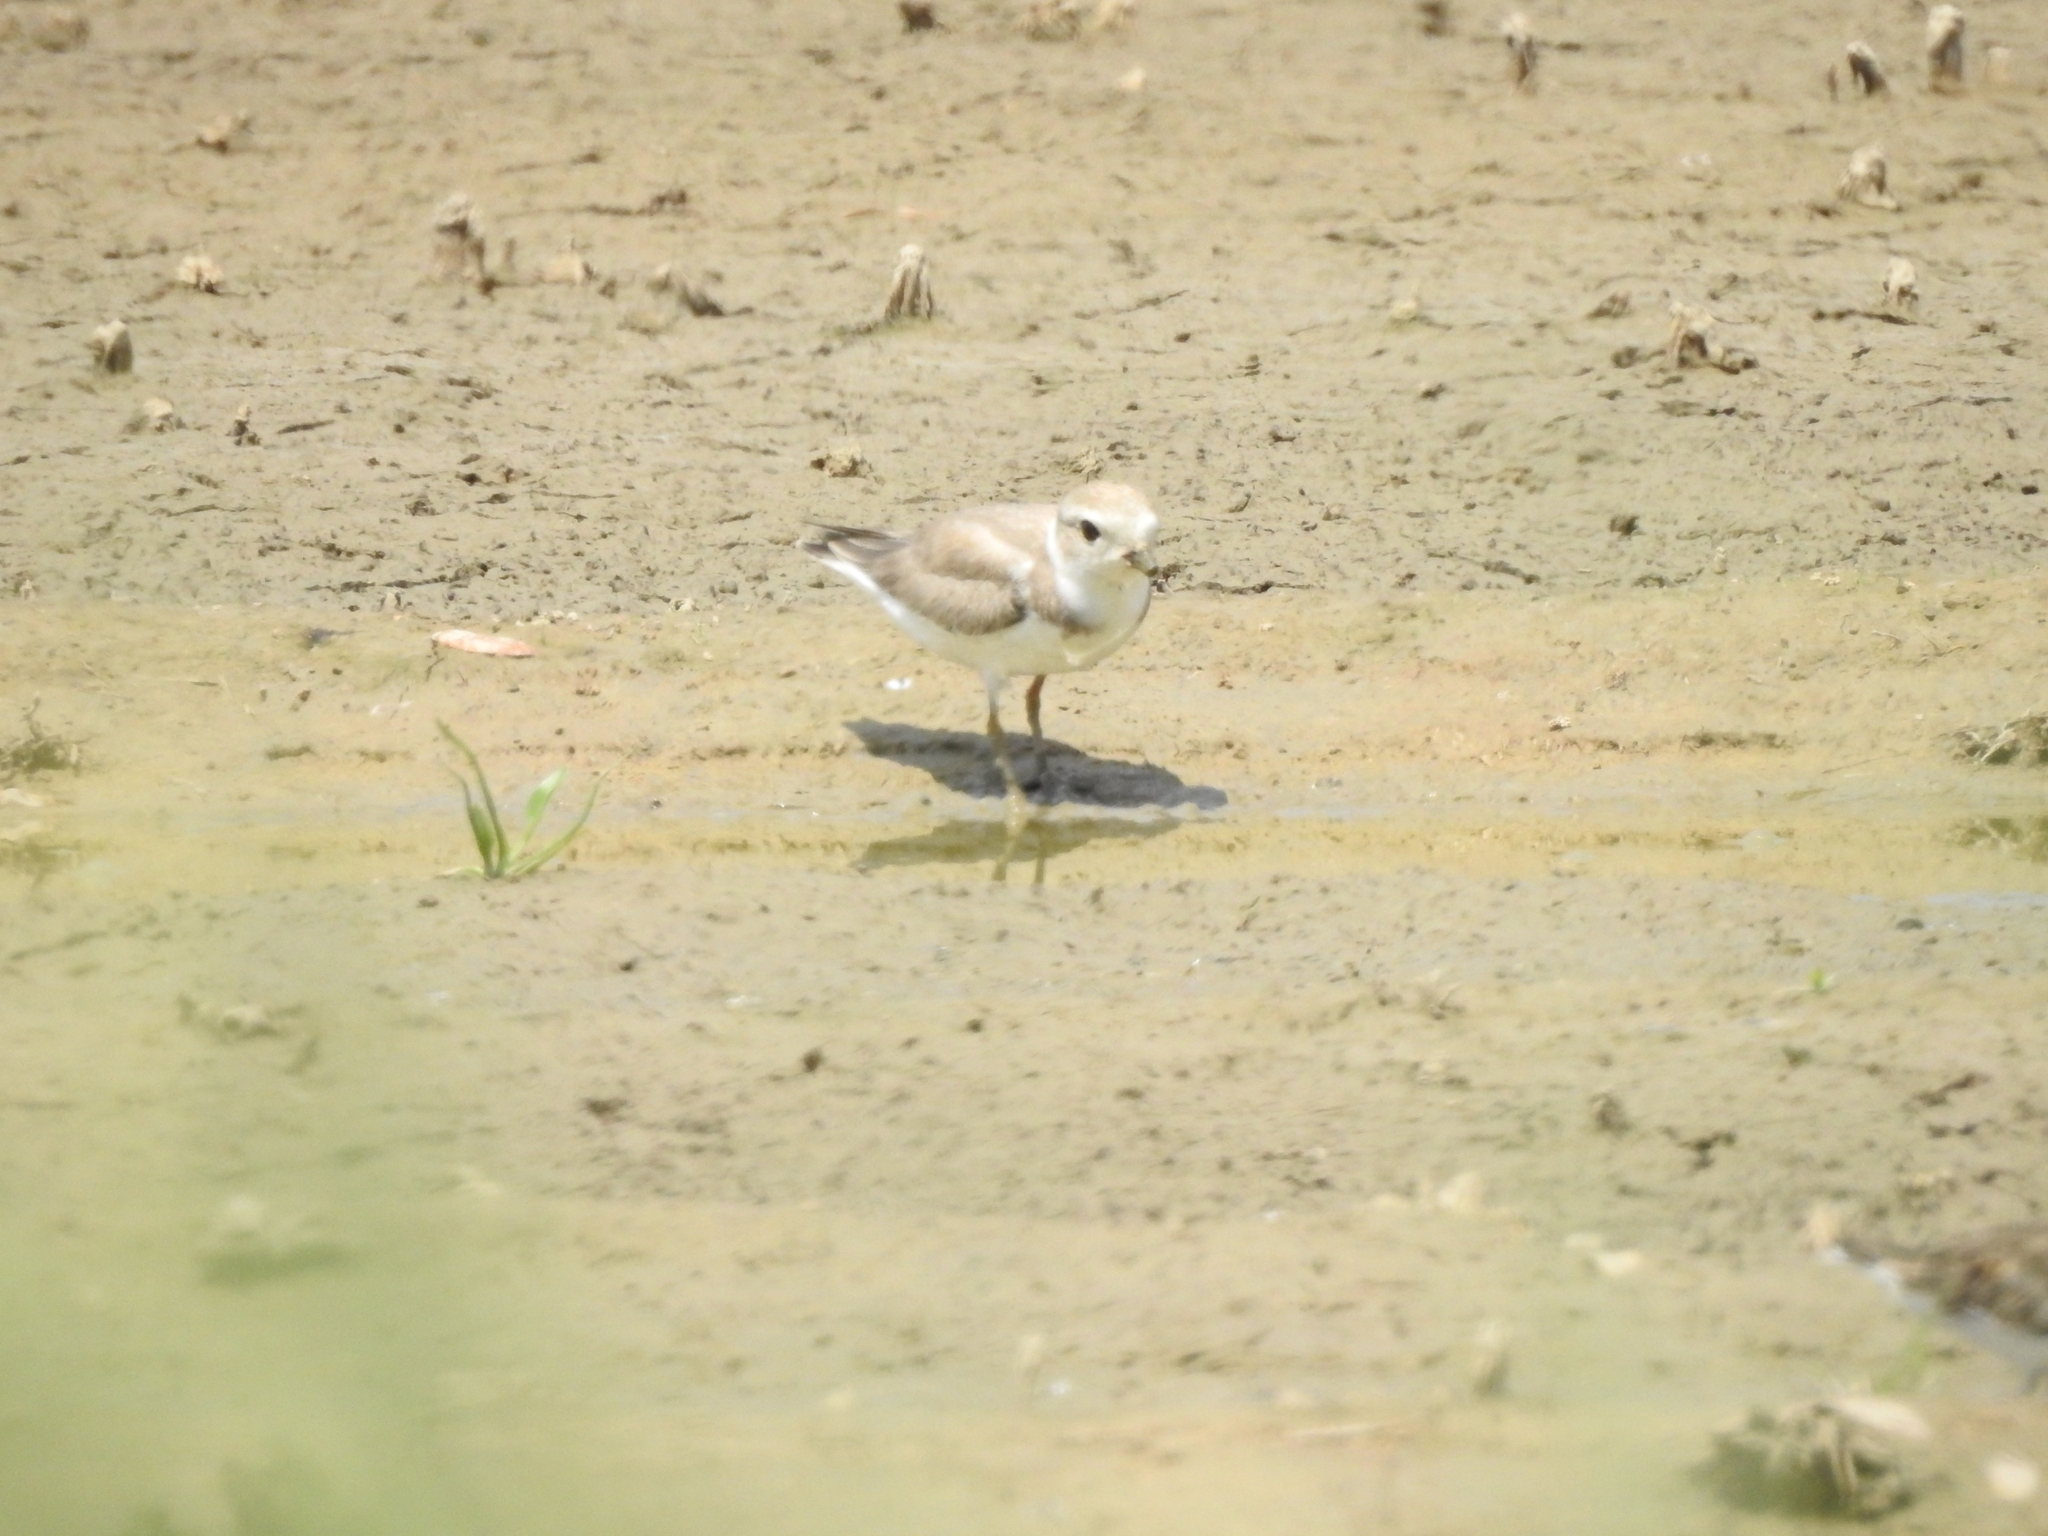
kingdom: Animalia
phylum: Chordata
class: Aves
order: Charadriiformes
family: Charadriidae
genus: Charadrius
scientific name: Charadrius melodus
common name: Piping plover
